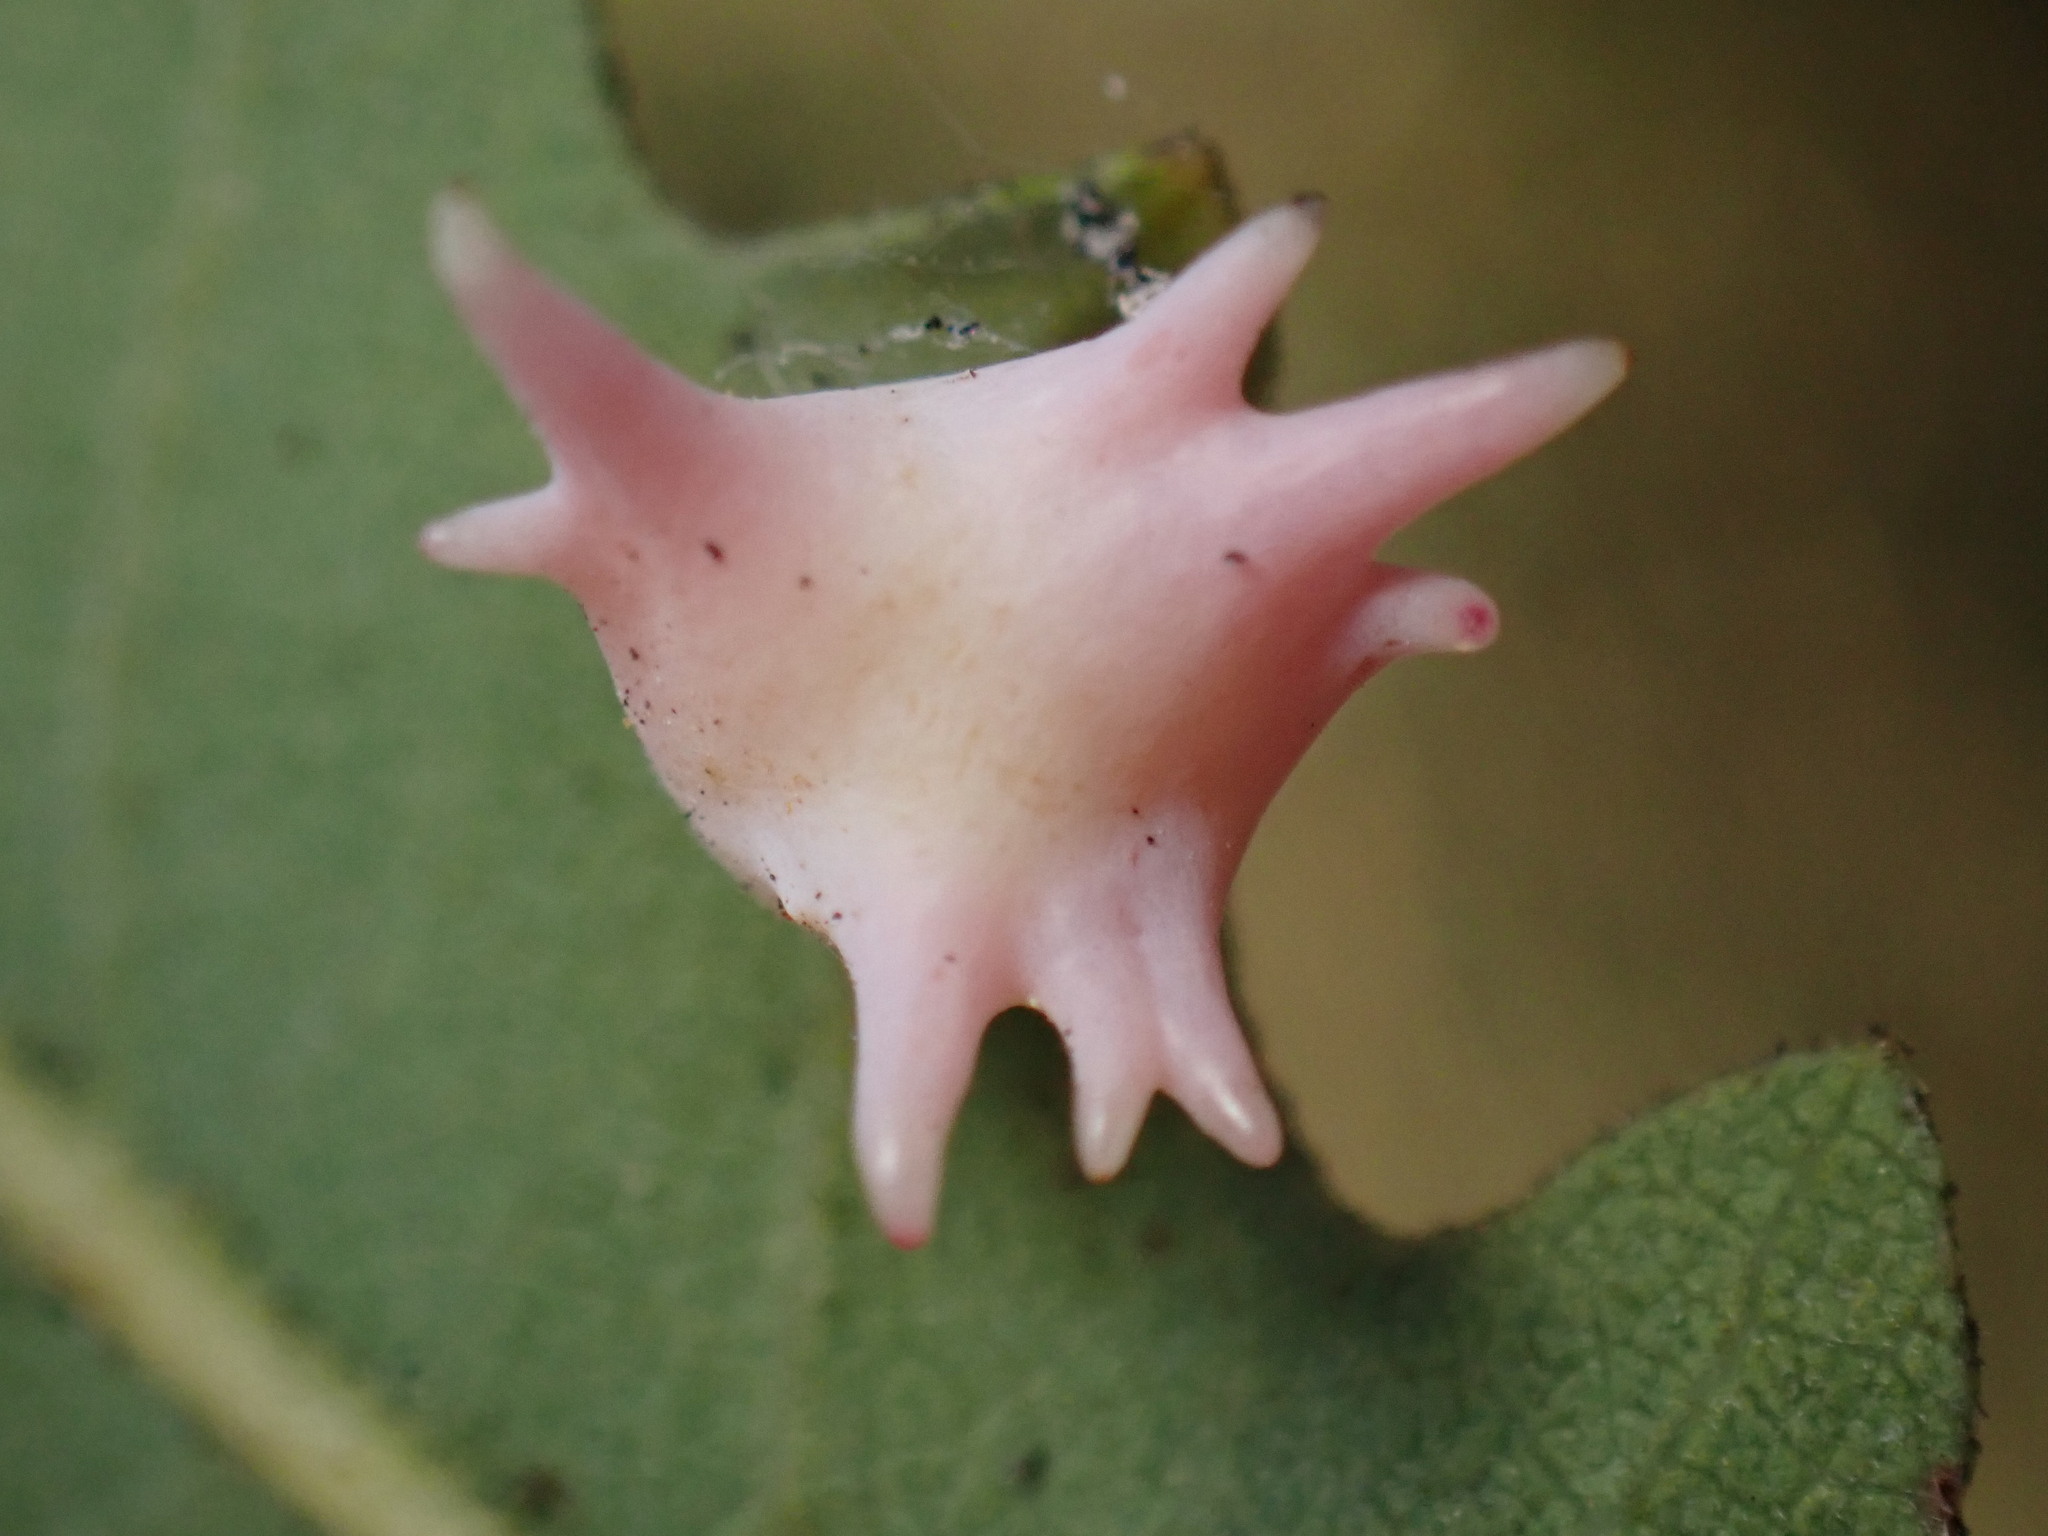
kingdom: Animalia
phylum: Arthropoda
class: Insecta
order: Hymenoptera
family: Cynipidae
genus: Cynips
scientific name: Cynips douglasi
